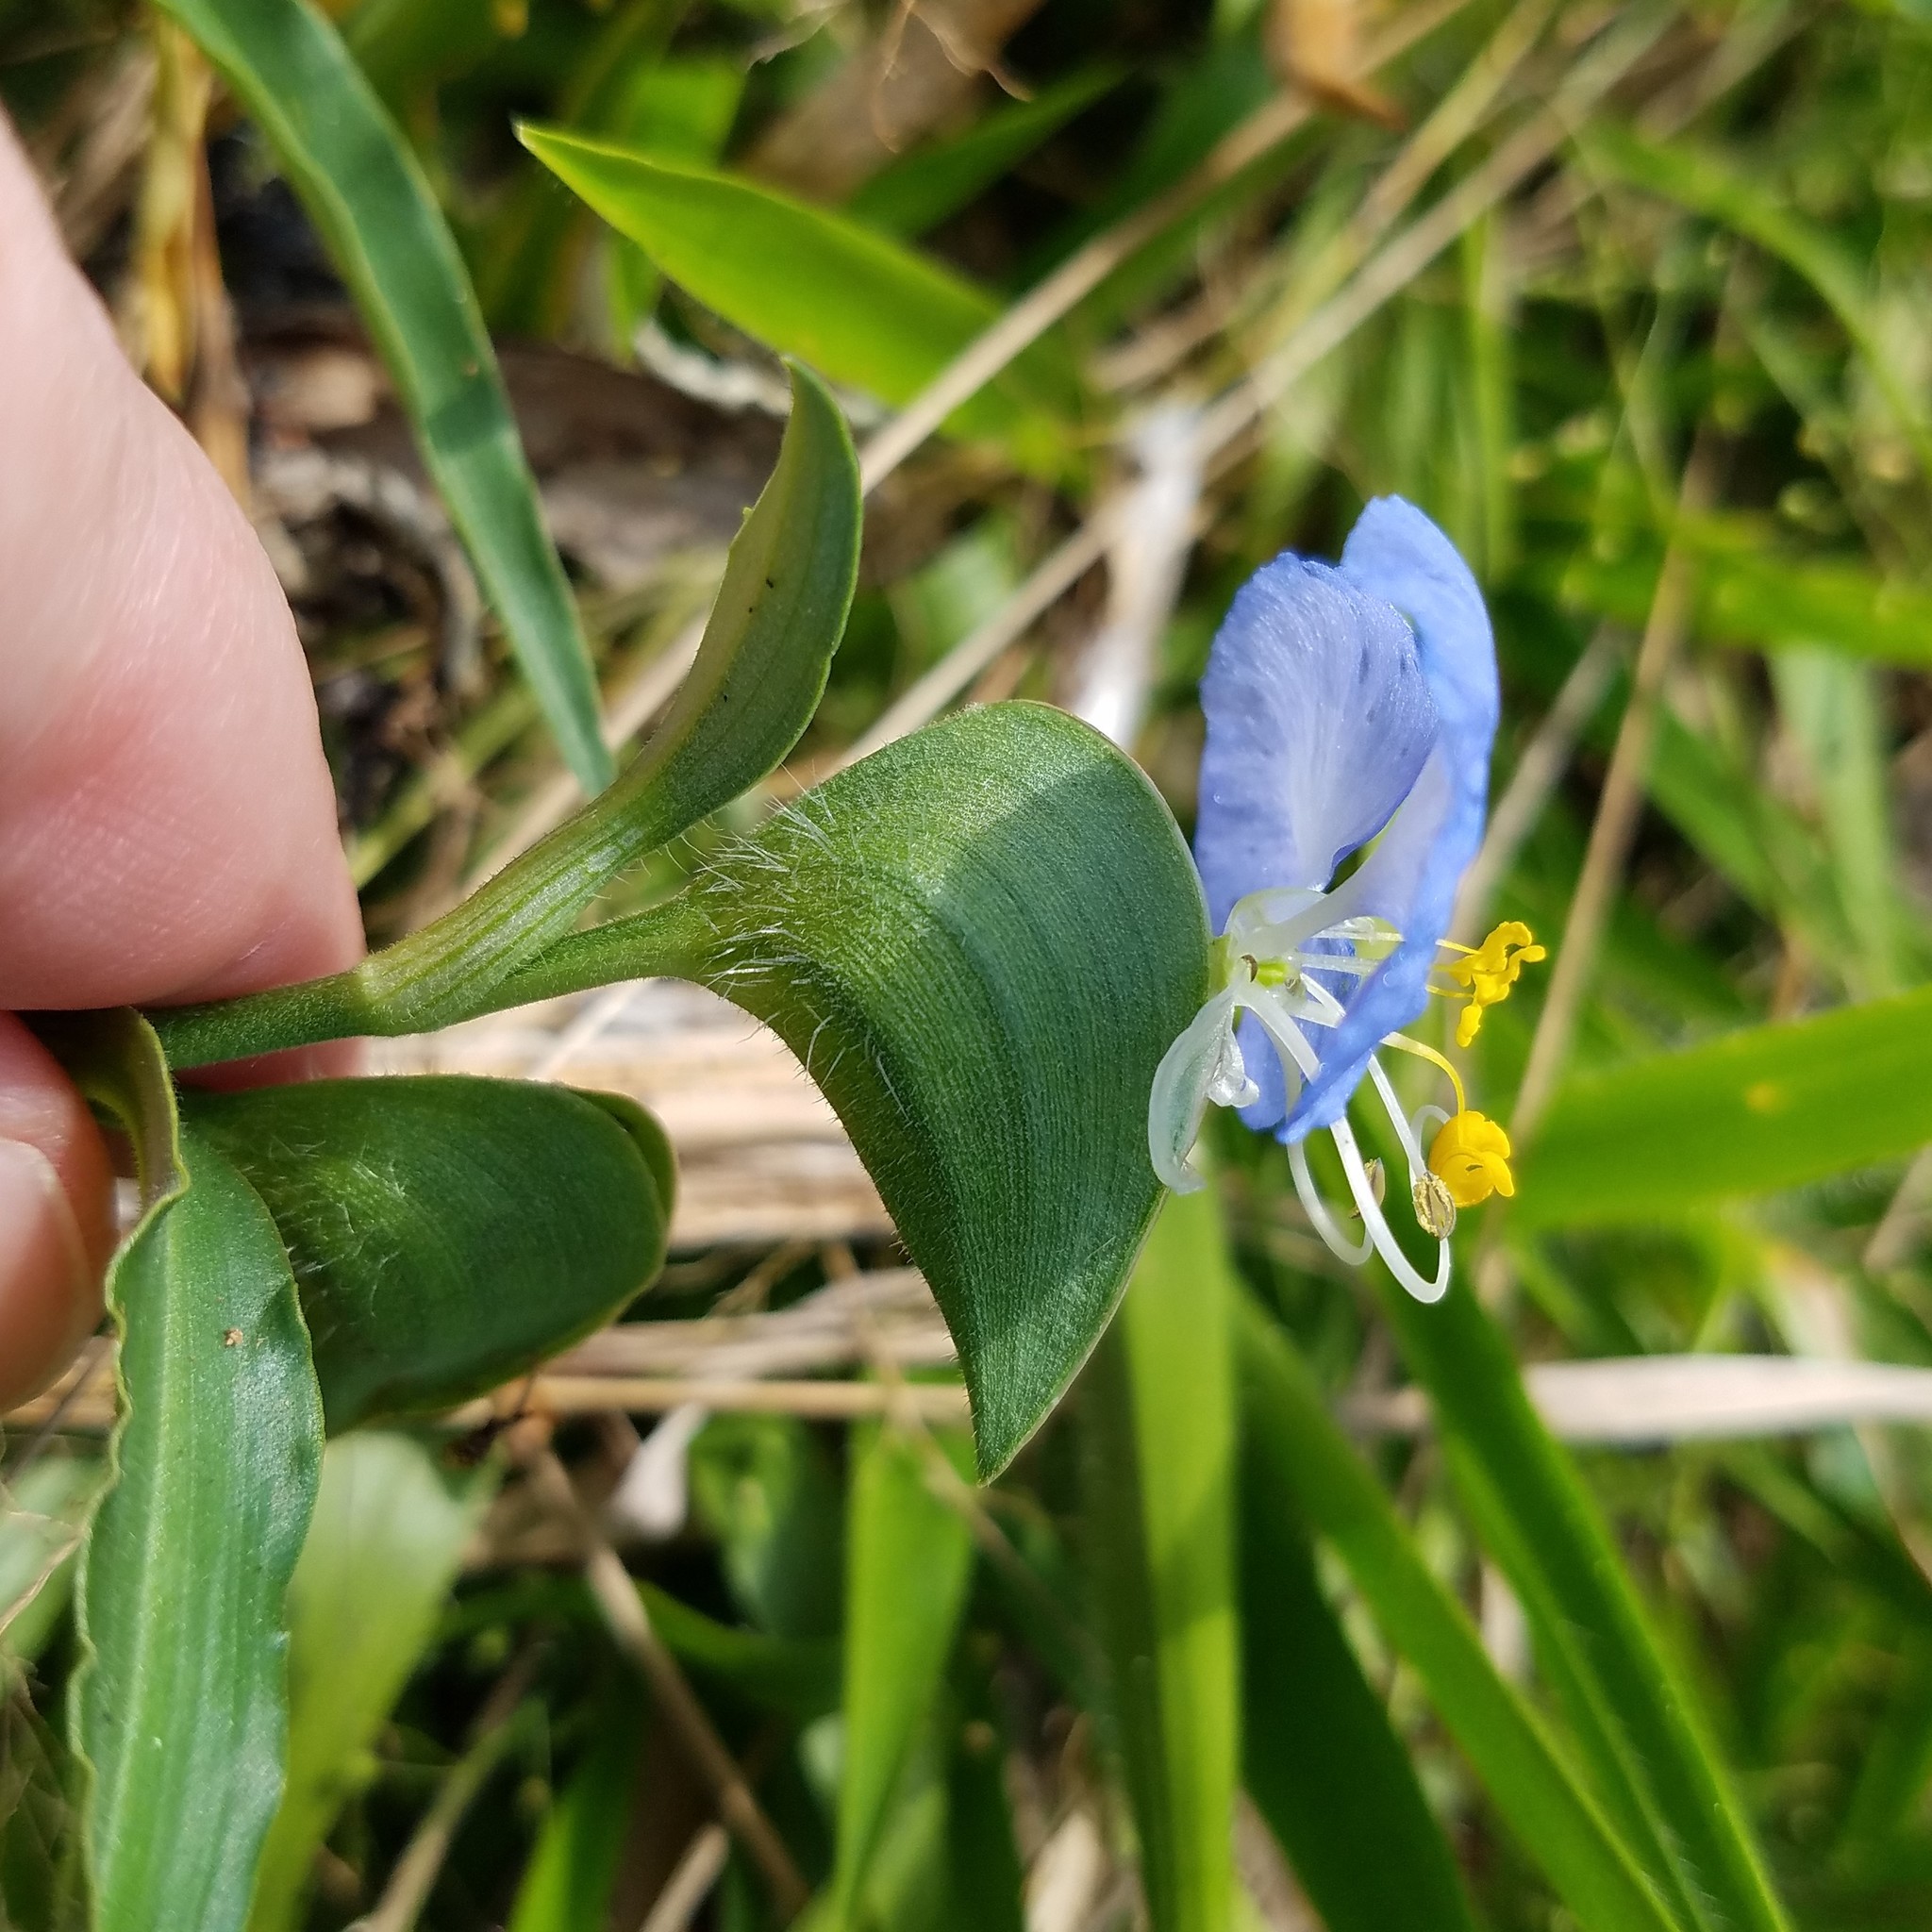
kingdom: Plantae
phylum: Tracheophyta
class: Liliopsida
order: Commelinales
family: Commelinaceae
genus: Commelina
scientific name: Commelina erecta
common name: Blousel blommetjie
